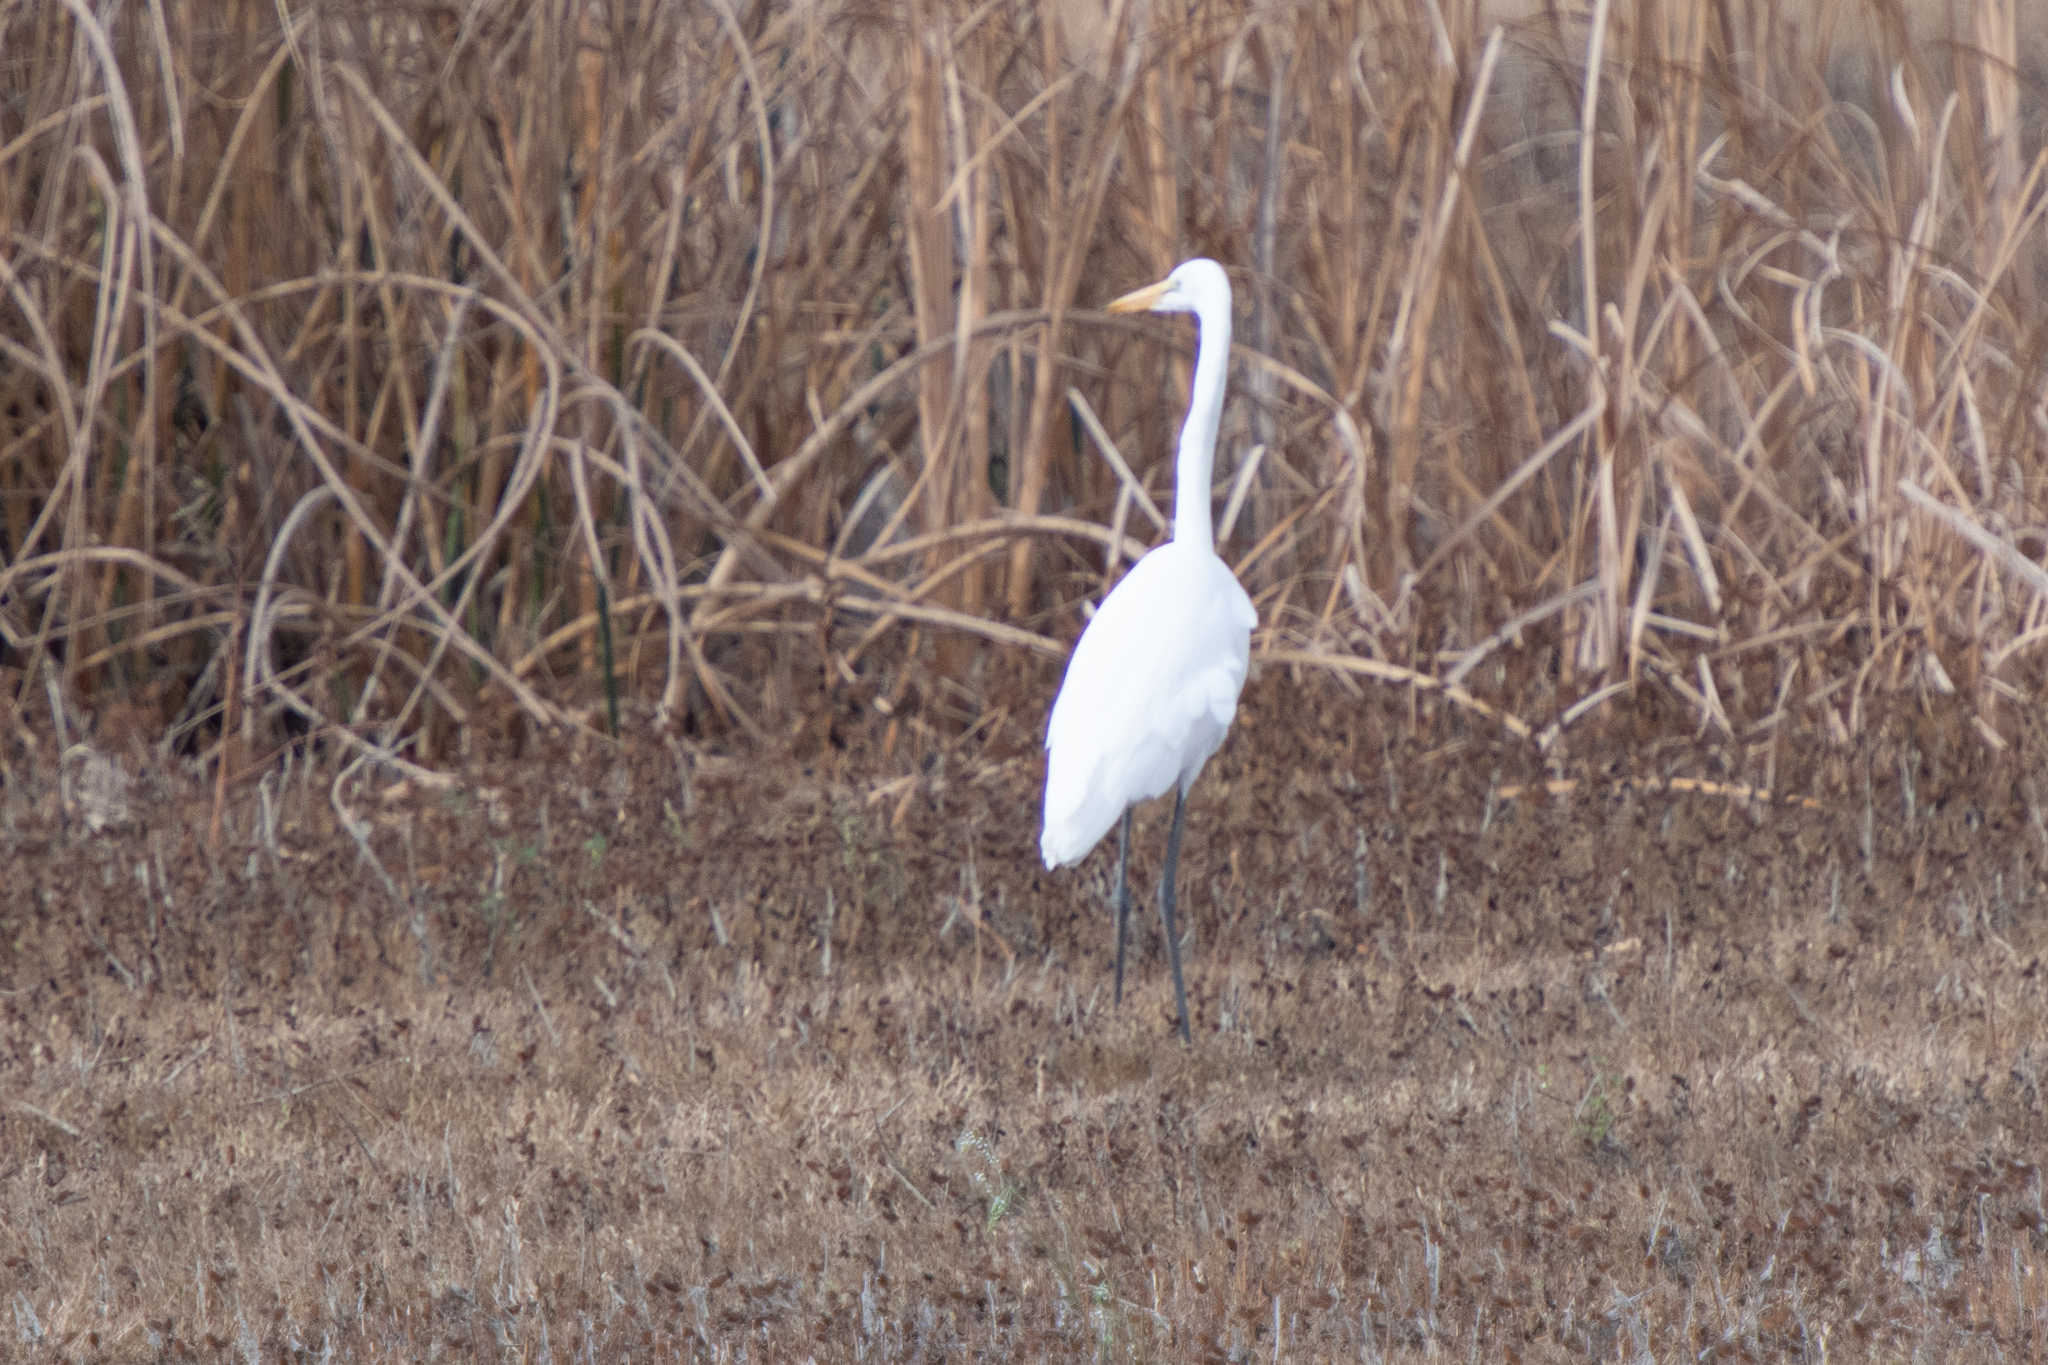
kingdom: Animalia
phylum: Chordata
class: Aves
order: Pelecaniformes
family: Ardeidae
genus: Ardea
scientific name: Ardea alba
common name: Great egret
